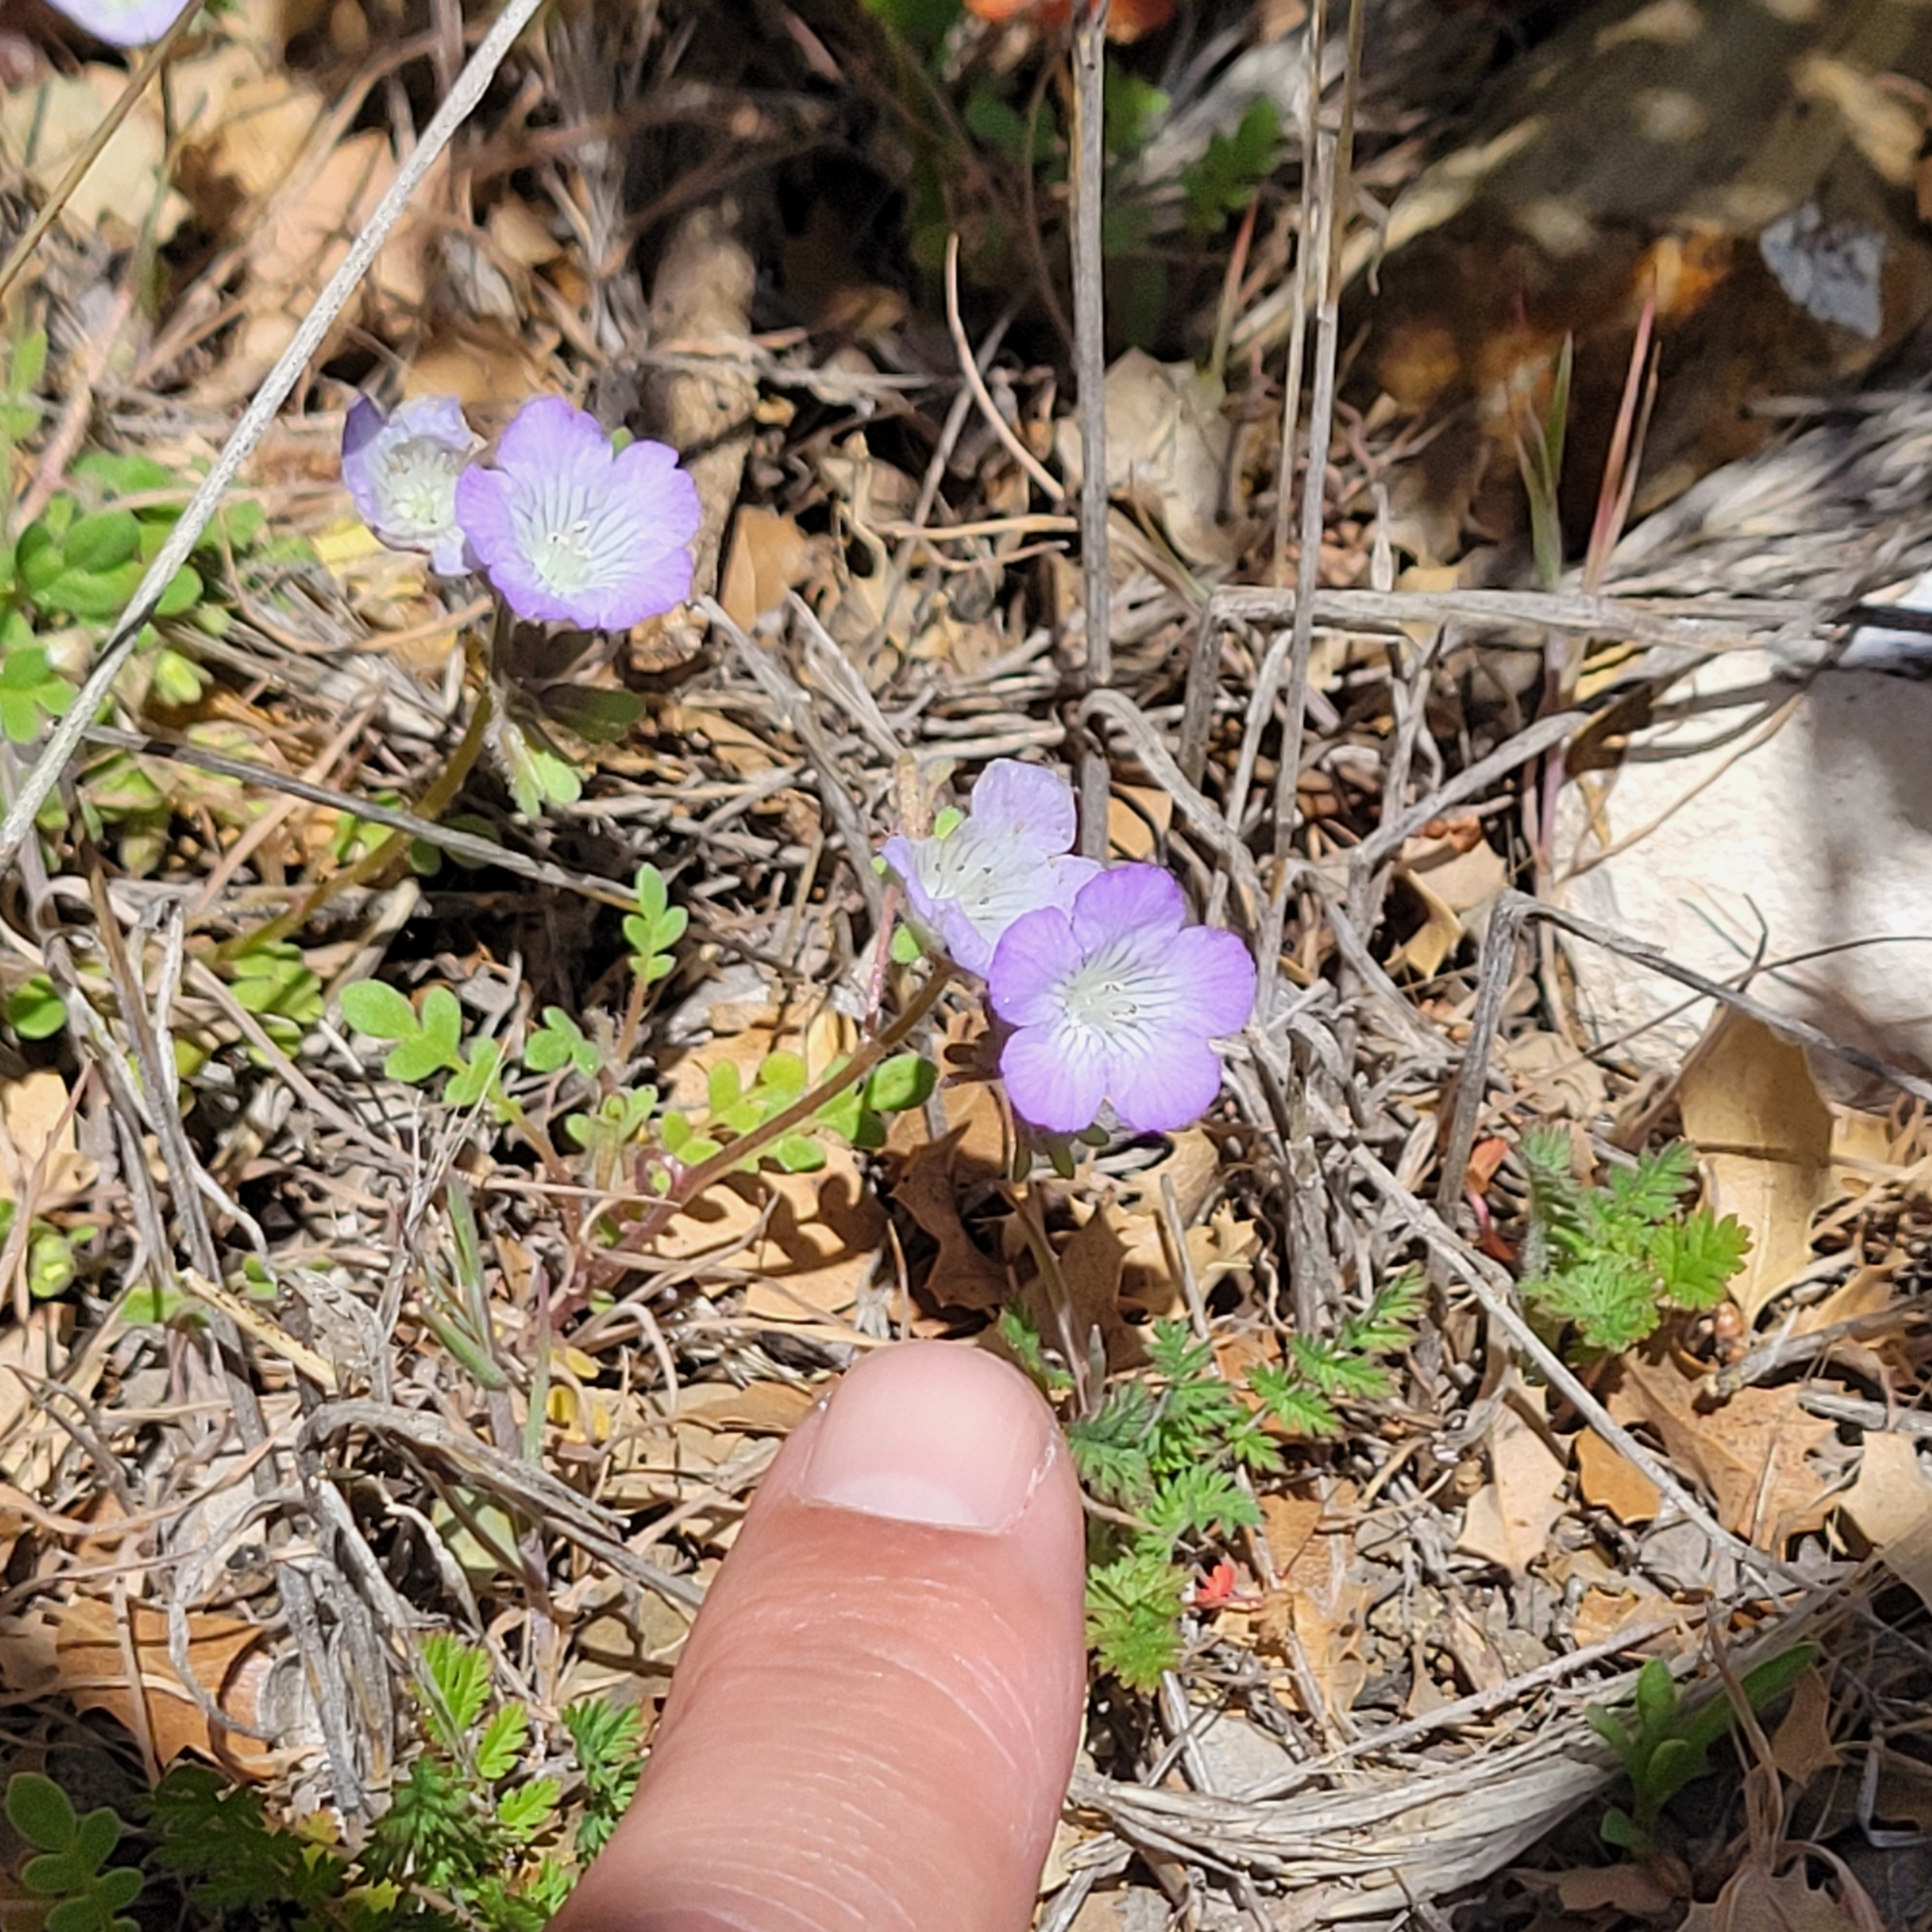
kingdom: Plantae
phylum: Tracheophyta
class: Magnoliopsida
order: Boraginales
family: Hydrophyllaceae
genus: Phacelia
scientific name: Phacelia douglasii
